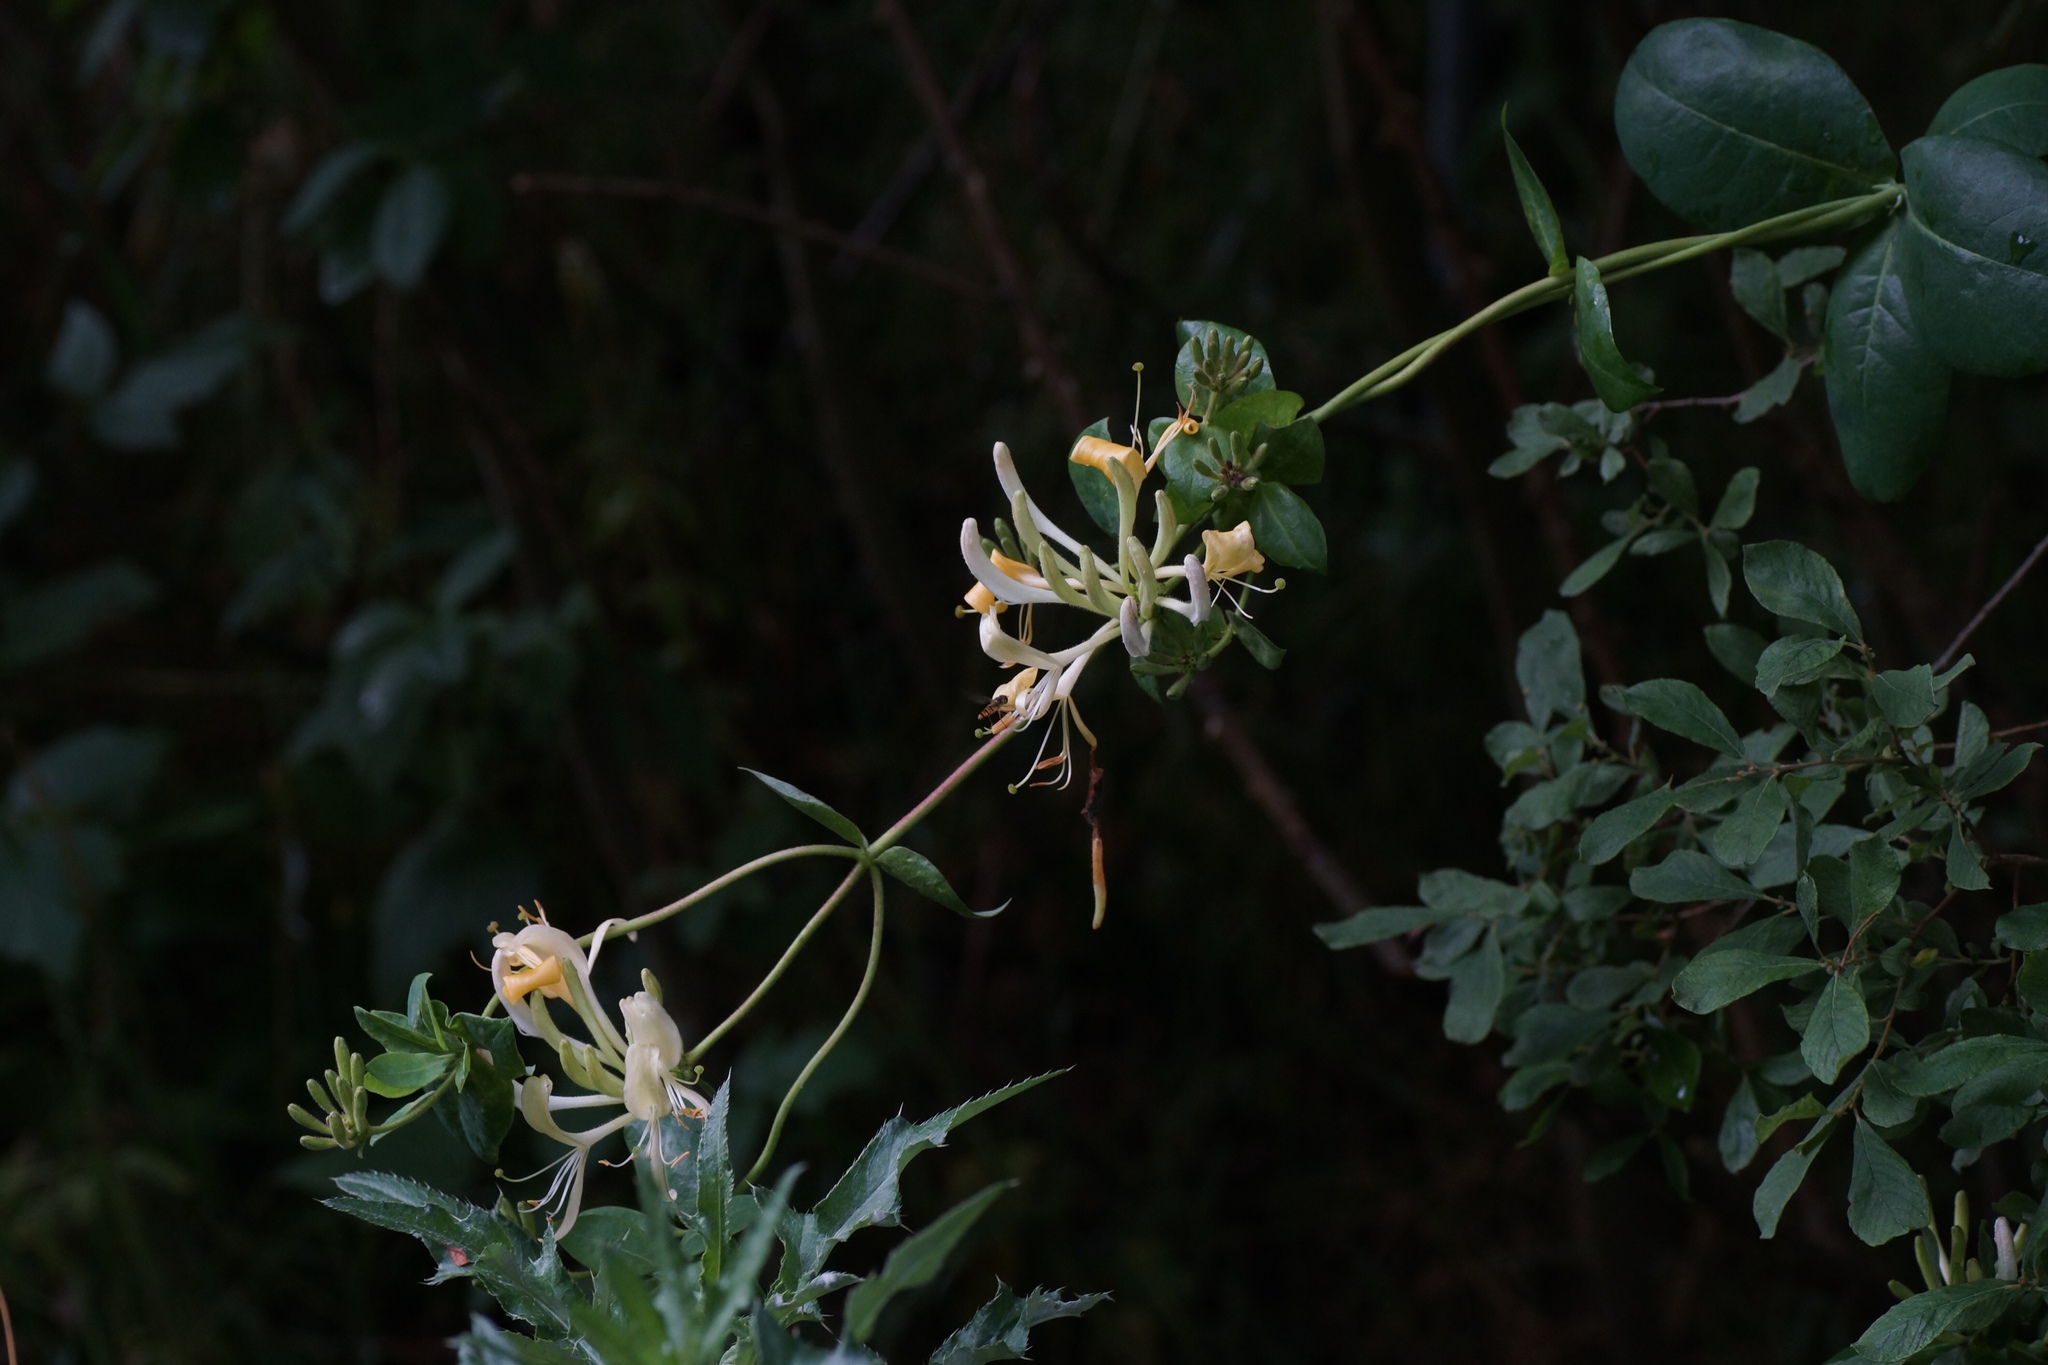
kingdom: Plantae
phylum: Tracheophyta
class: Magnoliopsida
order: Dipsacales
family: Caprifoliaceae
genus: Lonicera
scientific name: Lonicera periclymenum
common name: European honeysuckle
